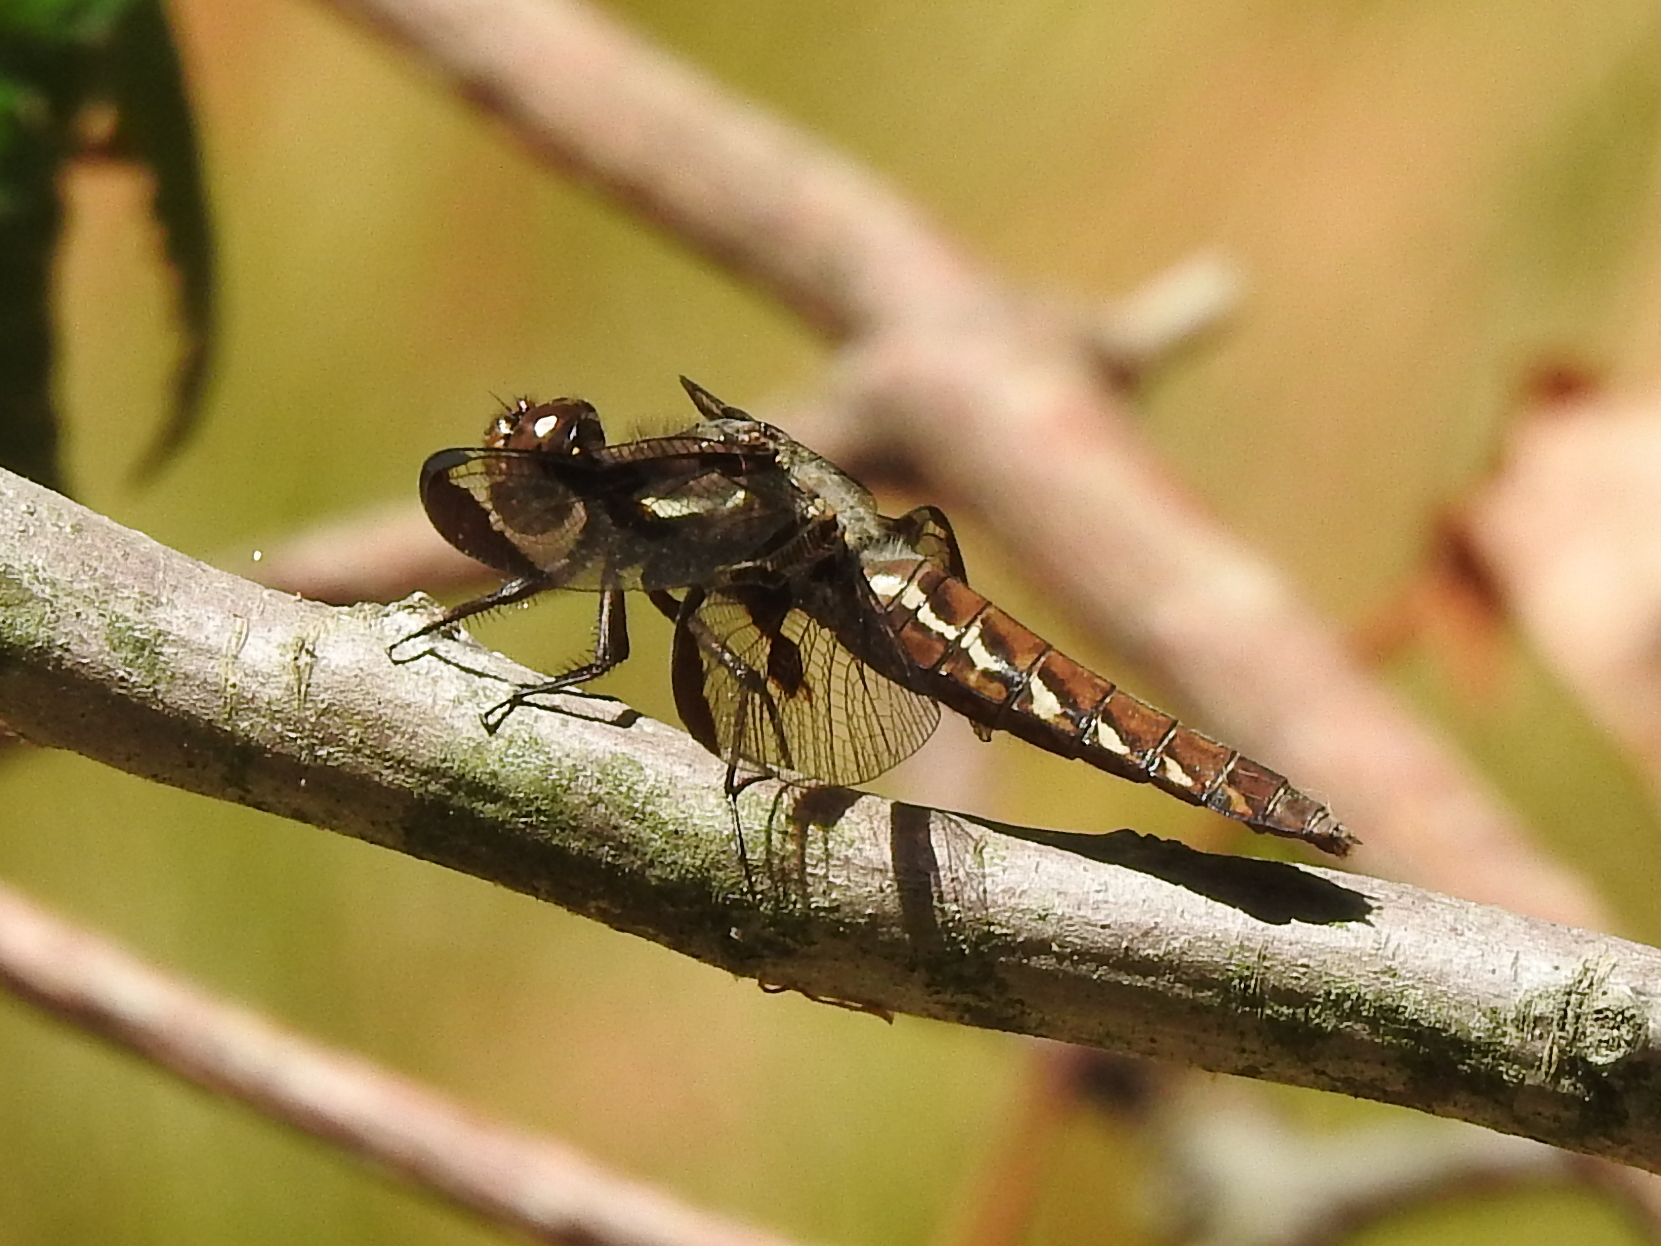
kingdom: Animalia
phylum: Arthropoda
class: Insecta
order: Odonata
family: Libellulidae
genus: Plathemis
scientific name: Plathemis lydia
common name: Common whitetail
